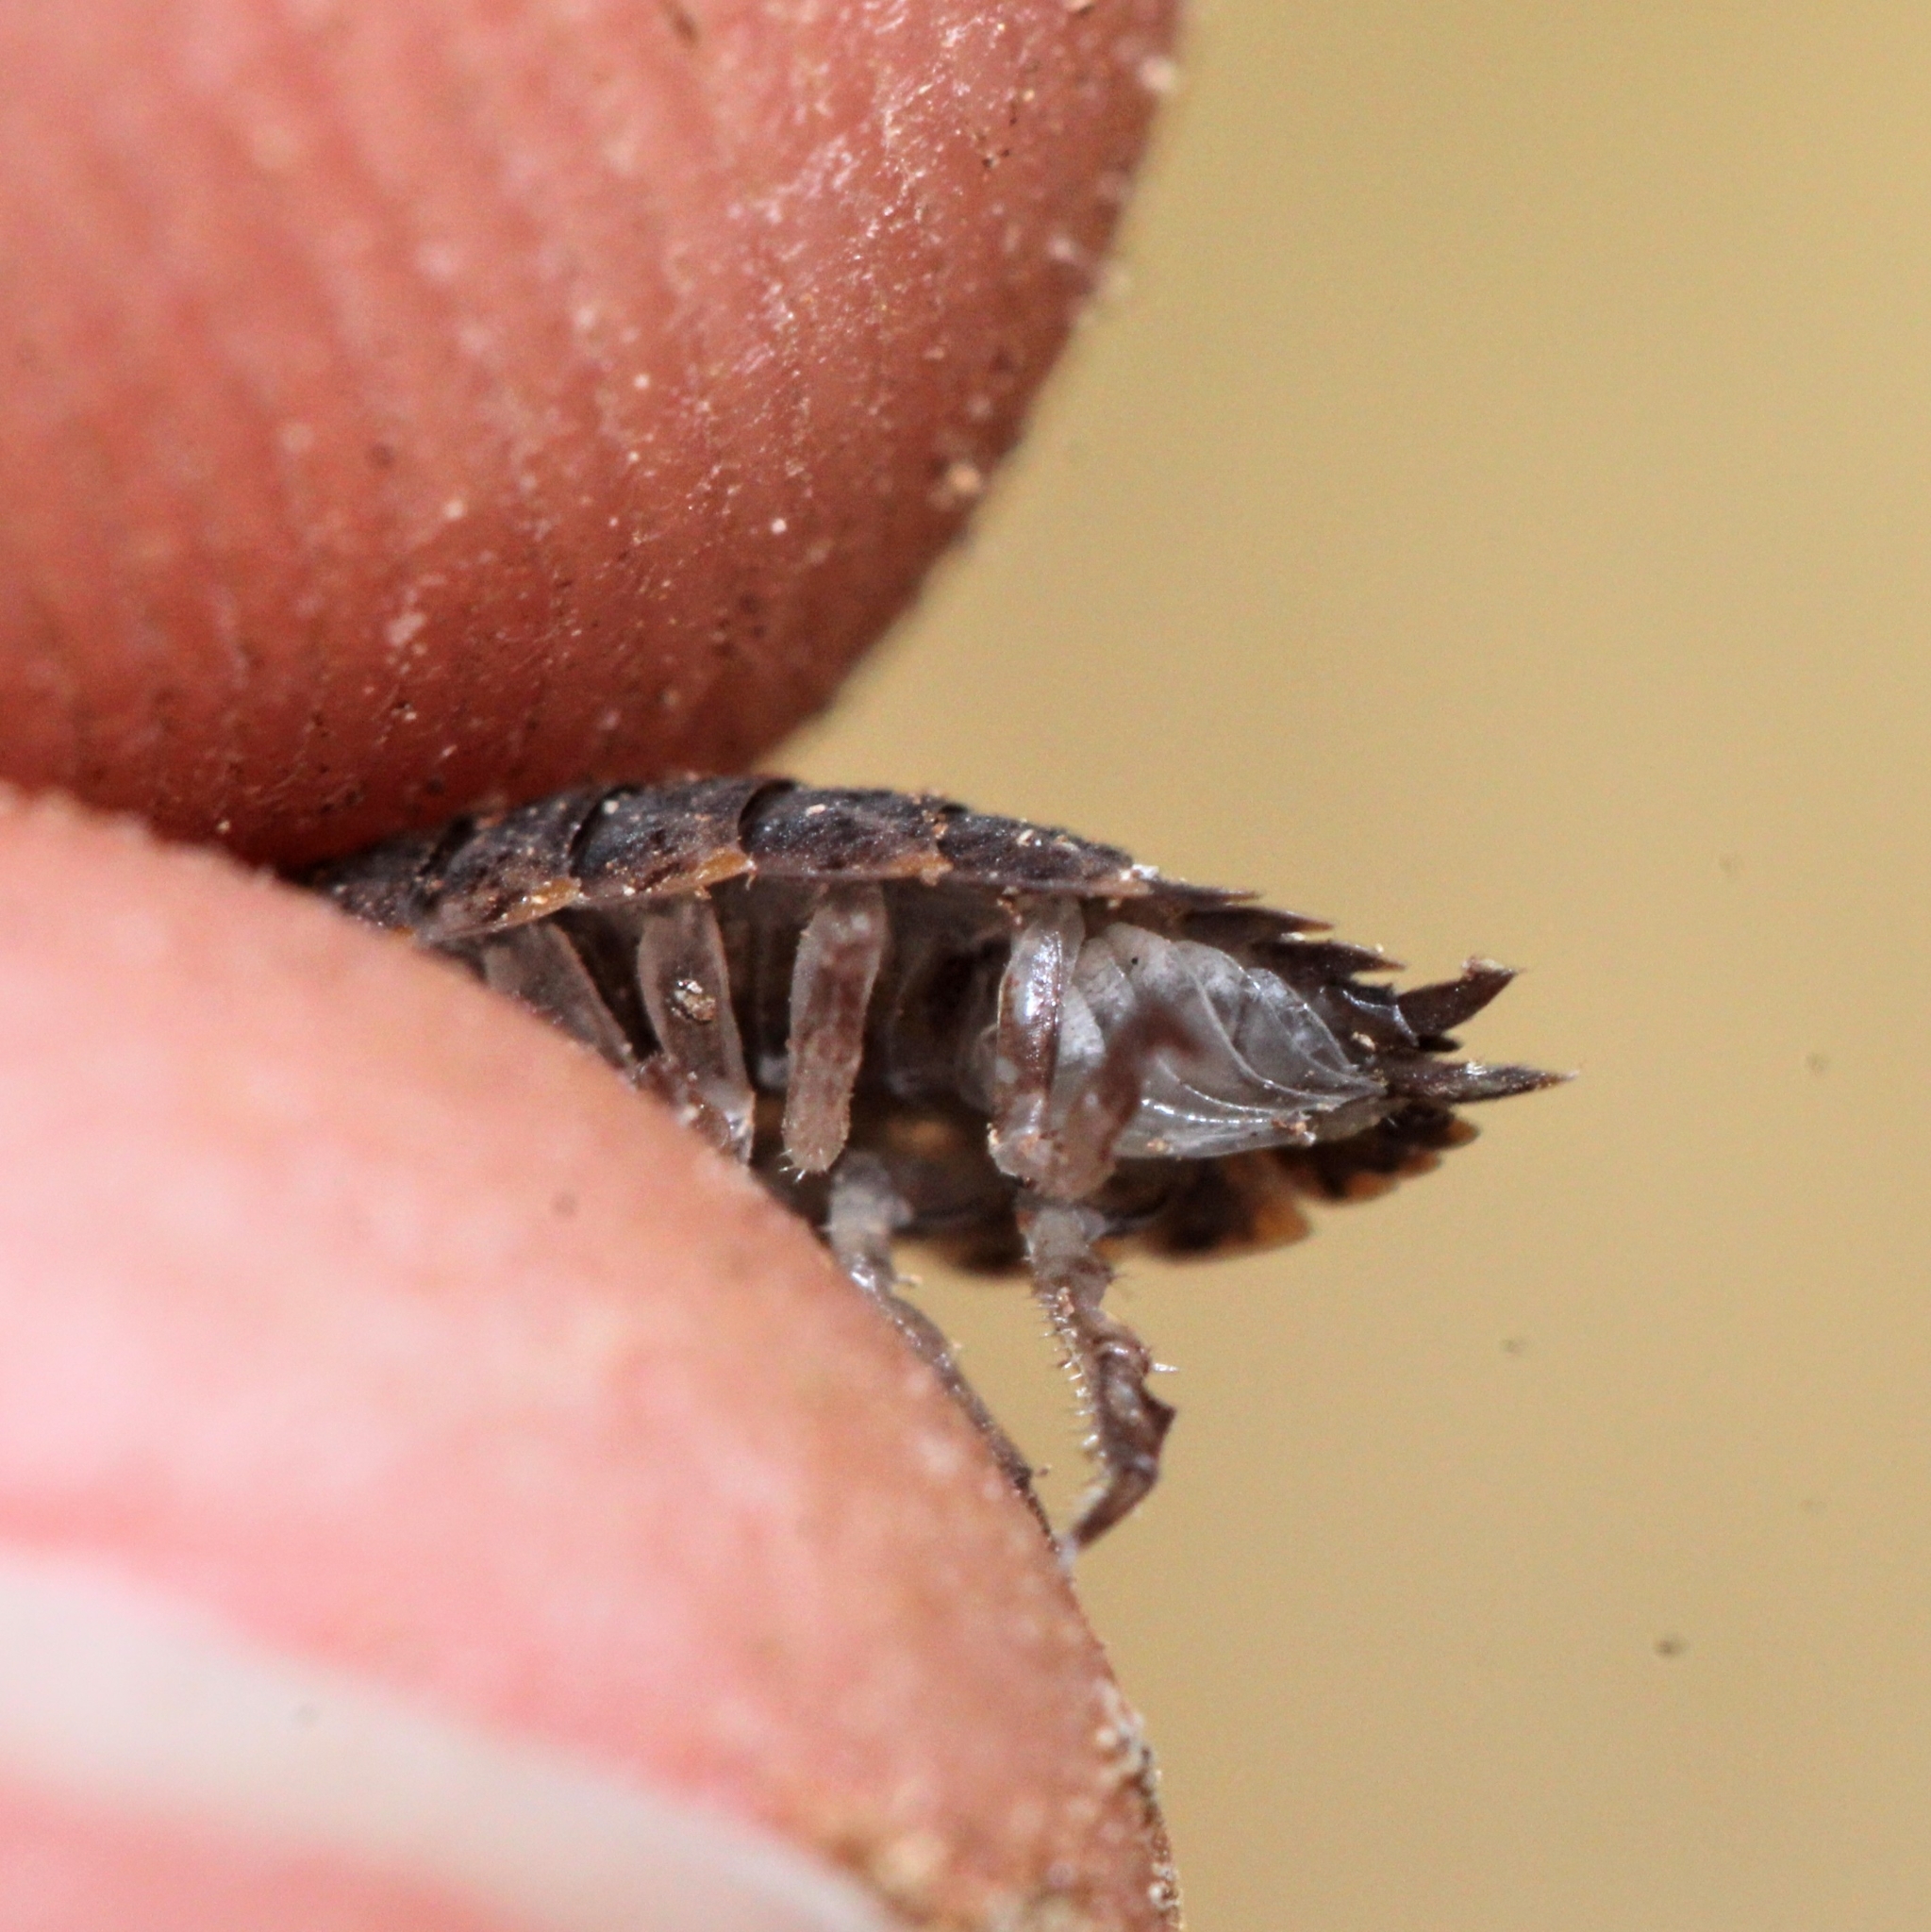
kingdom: Animalia
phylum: Arthropoda
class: Malacostraca
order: Isopoda
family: Trachelipodidae
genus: Trachelipus
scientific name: Trachelipus rathkii
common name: Isopod
